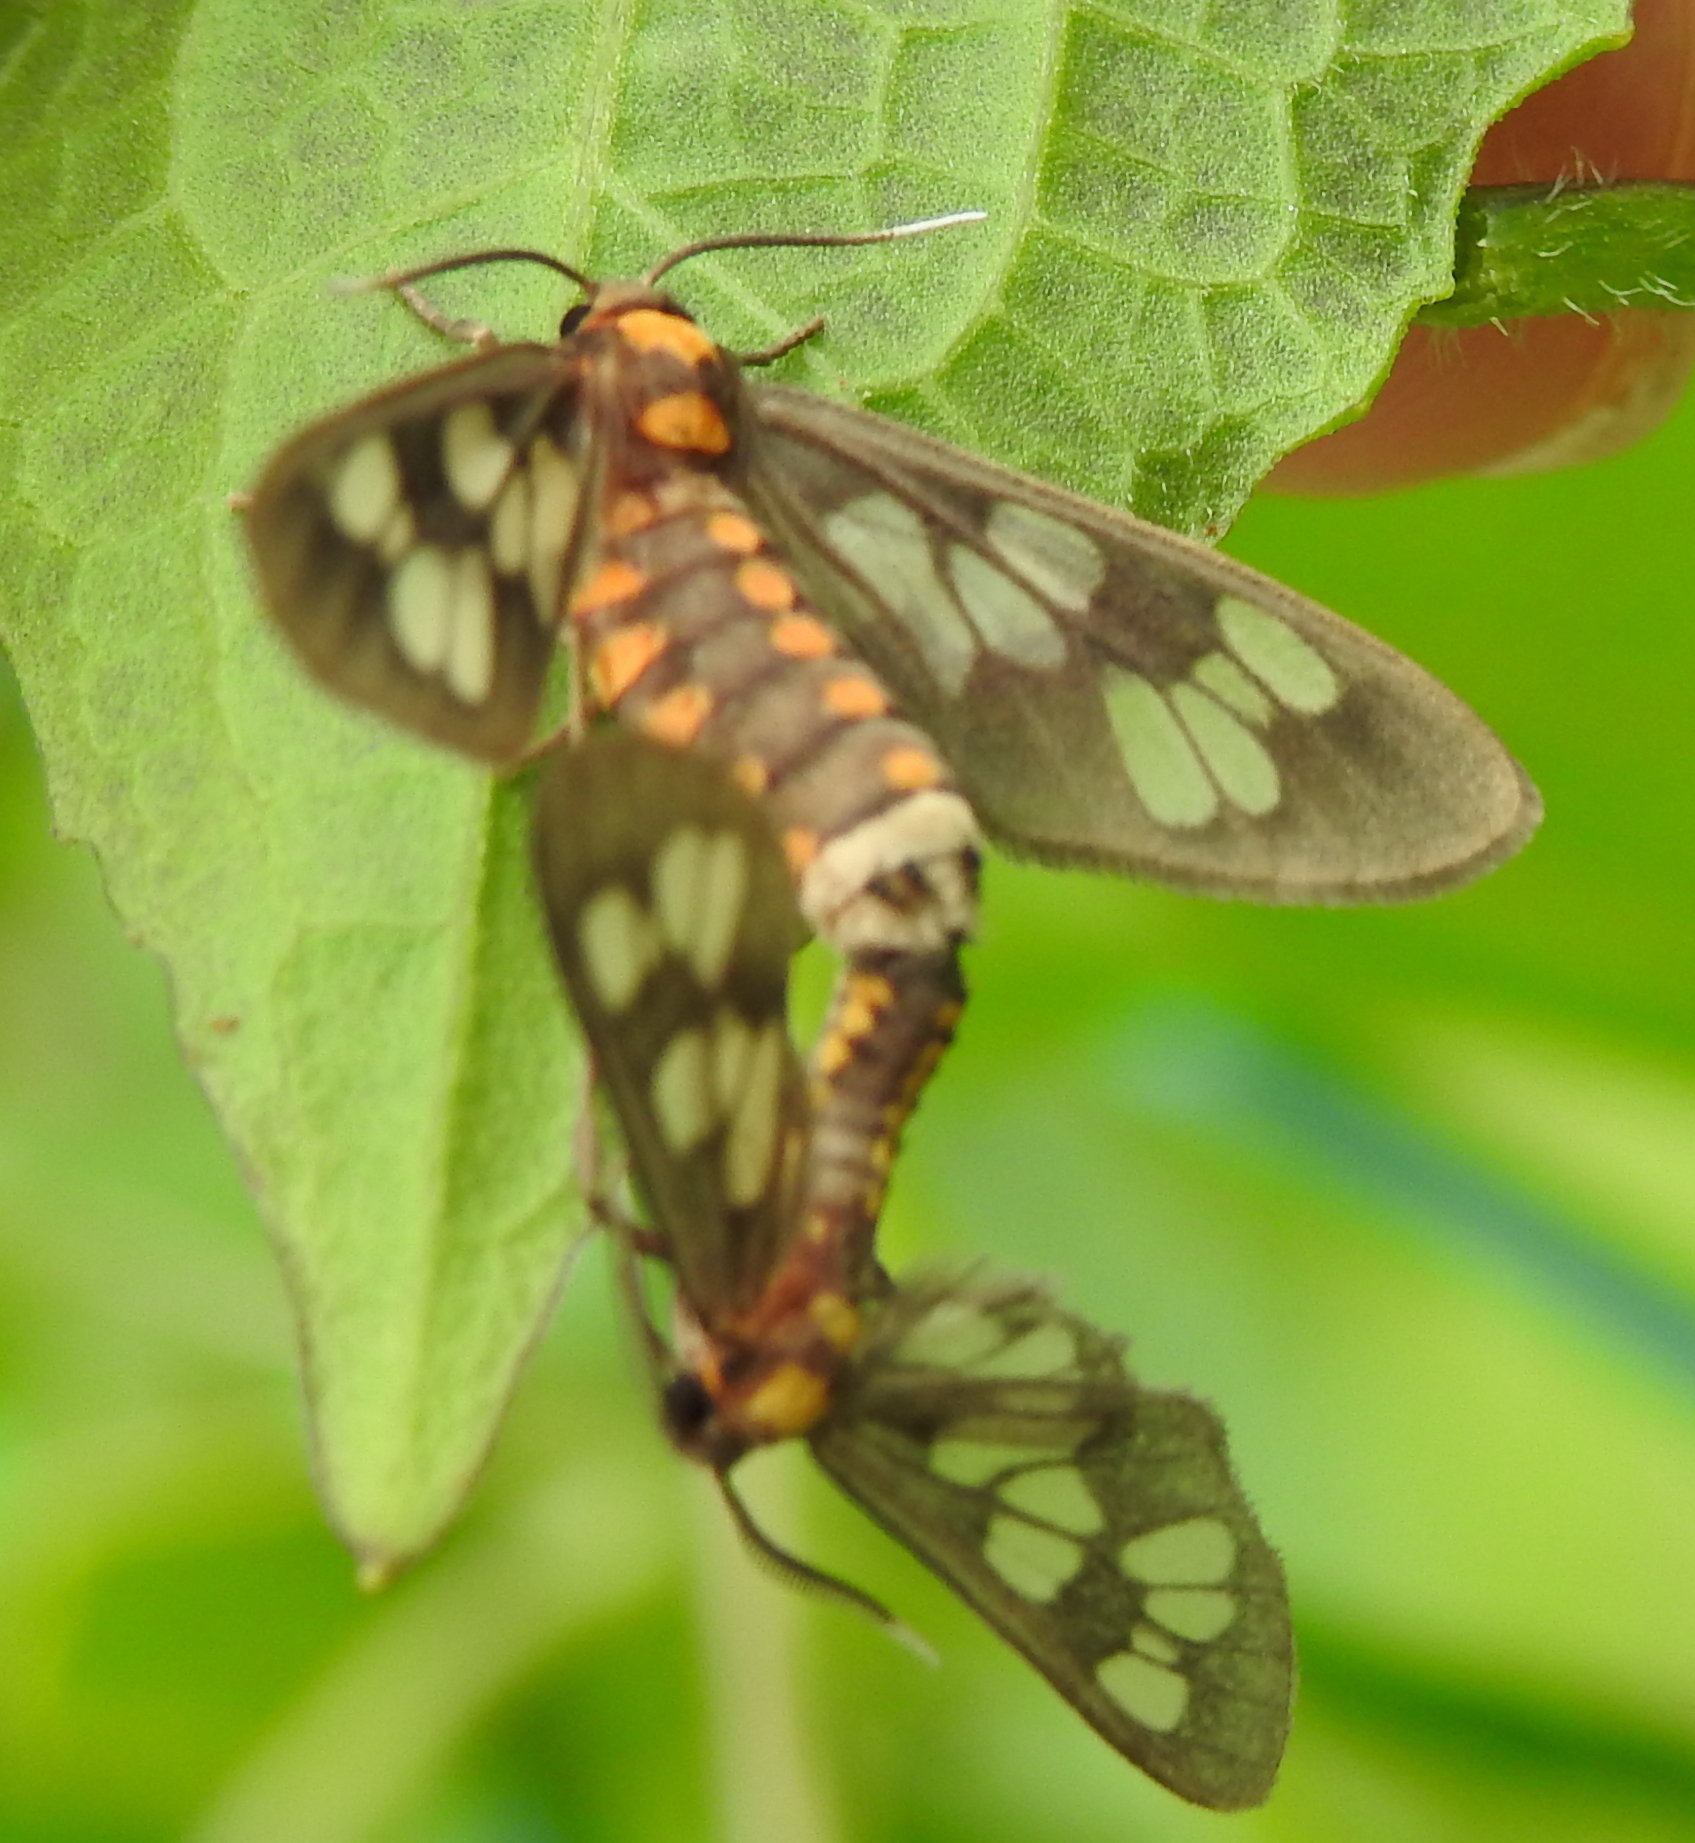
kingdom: Animalia
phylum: Arthropoda
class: Insecta
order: Lepidoptera
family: Erebidae
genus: Eressa
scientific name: Eressa confinis
